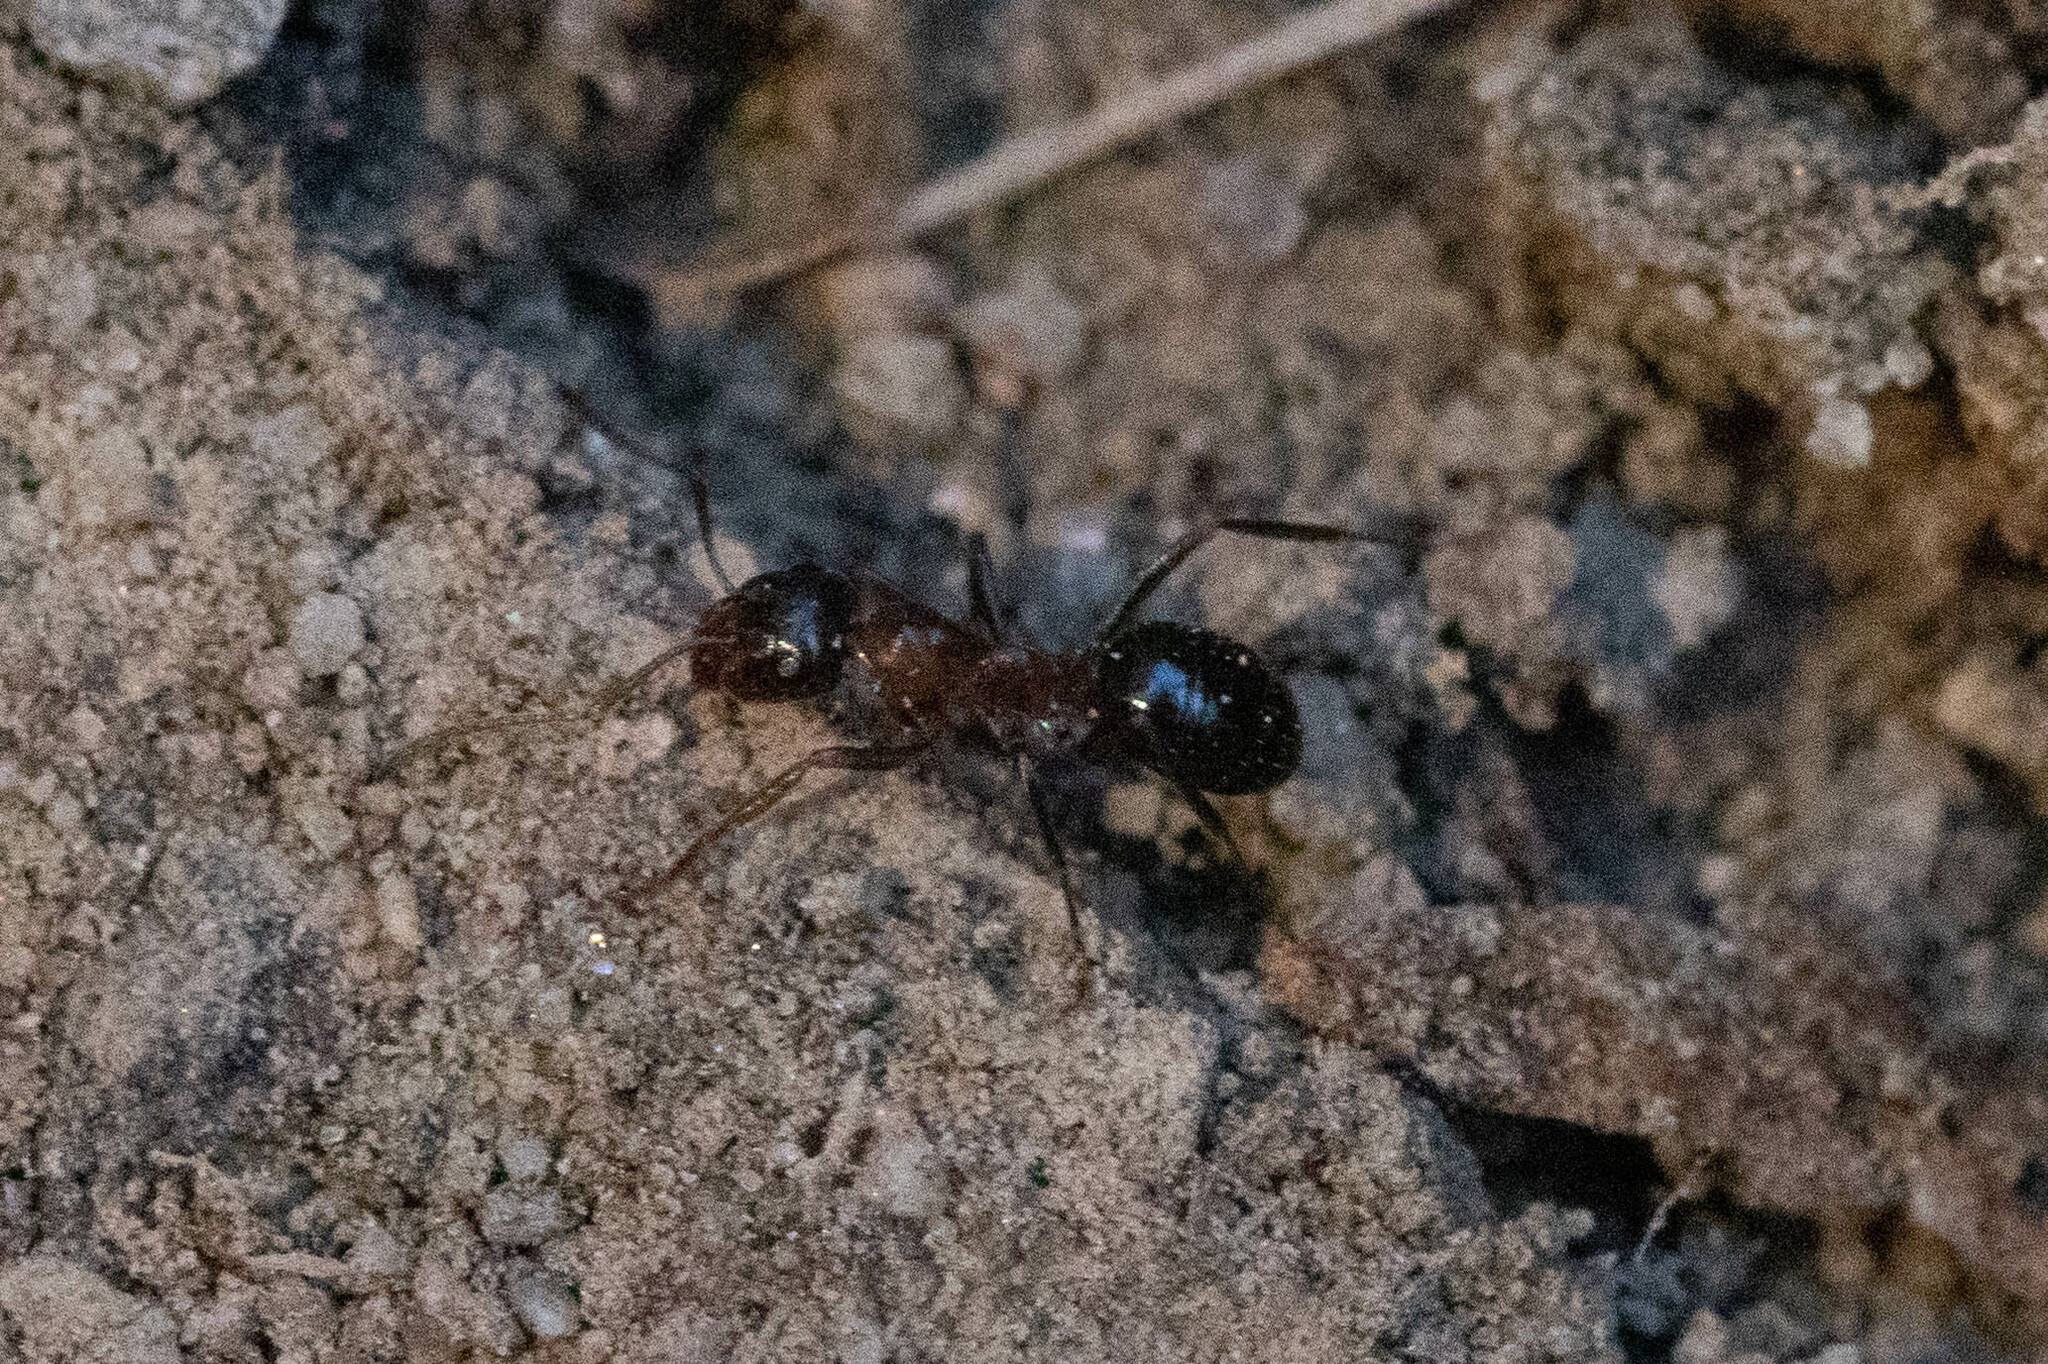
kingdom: Animalia
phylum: Arthropoda
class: Insecta
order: Hymenoptera
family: Formicidae
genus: Formica
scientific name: Formica subpolita
